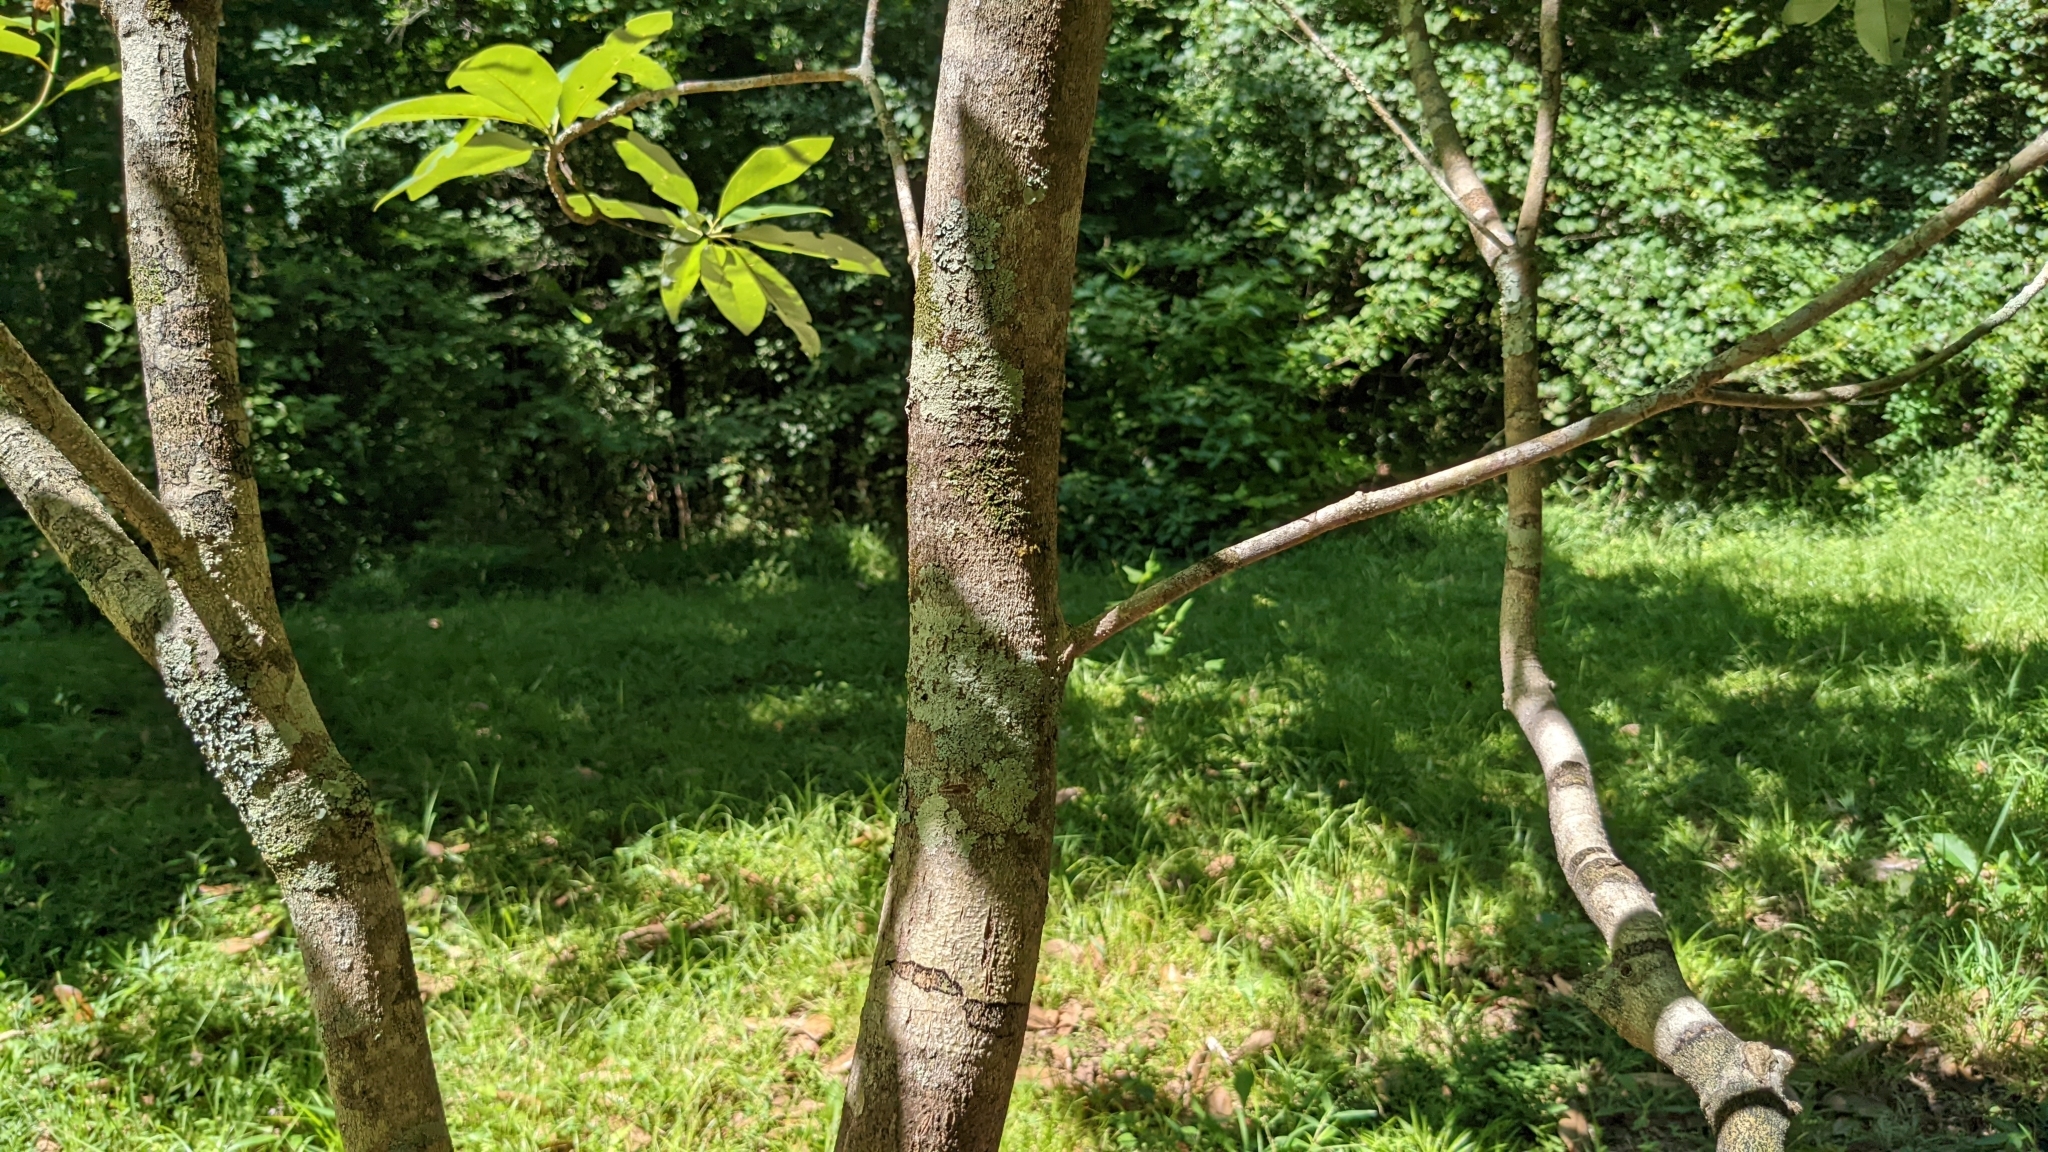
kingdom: Plantae
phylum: Tracheophyta
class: Magnoliopsida
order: Magnoliales
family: Magnoliaceae
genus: Magnolia
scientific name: Magnolia virginiana
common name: Swamp bay
